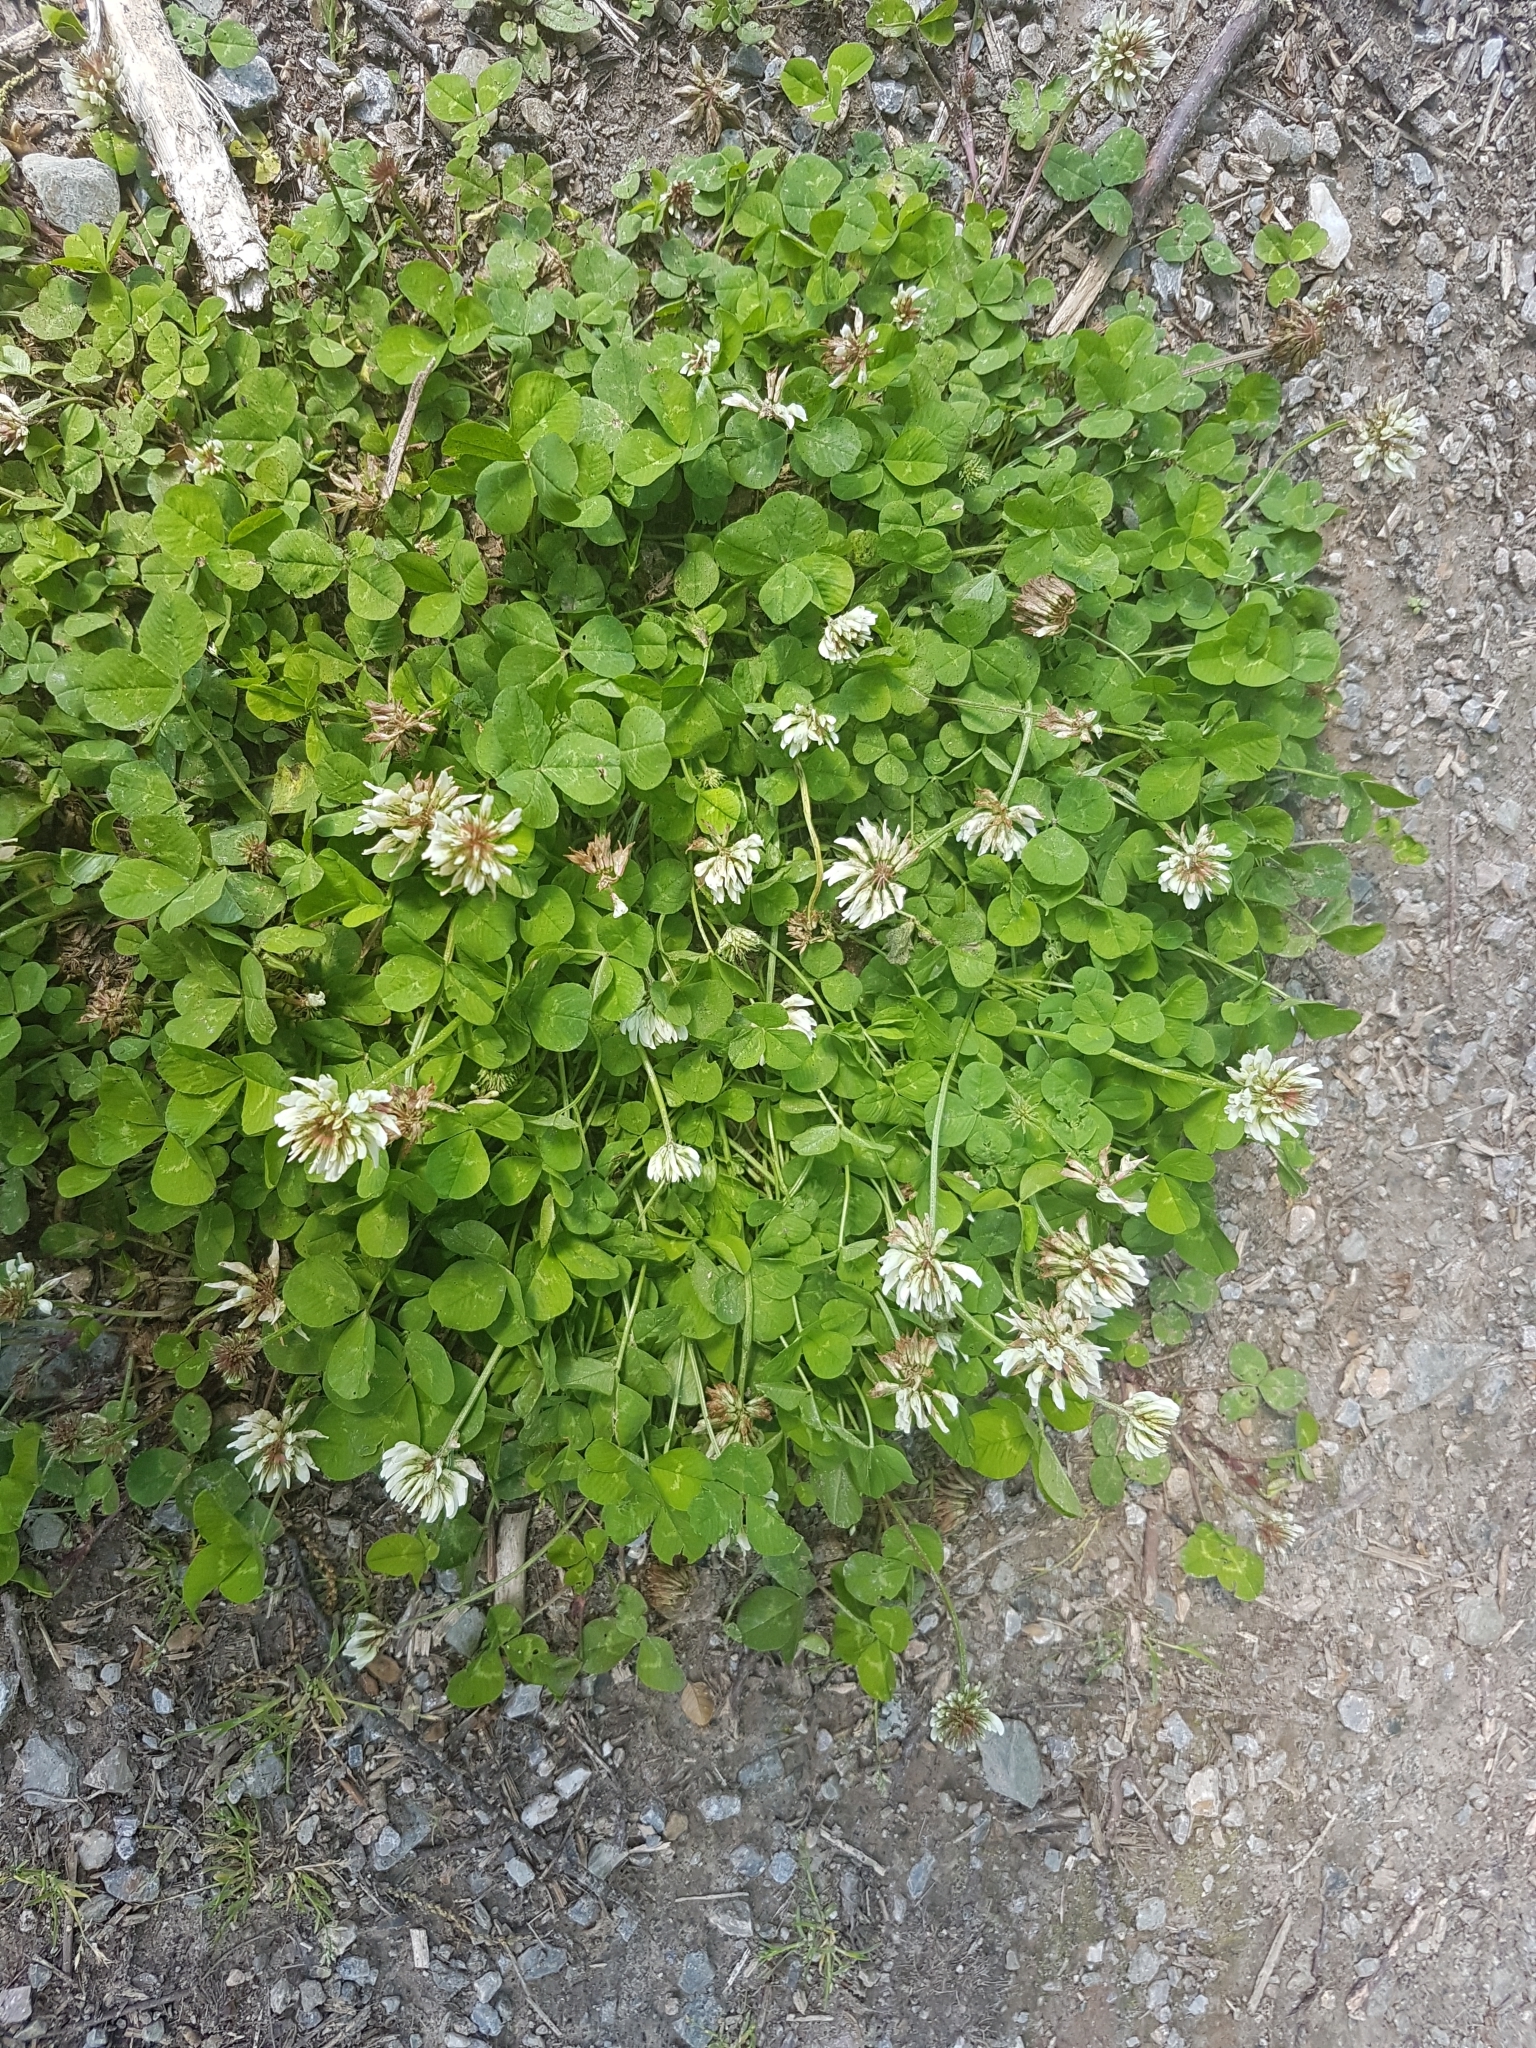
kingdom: Plantae
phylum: Tracheophyta
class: Magnoliopsida
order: Fabales
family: Fabaceae
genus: Trifolium
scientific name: Trifolium repens
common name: White clover
